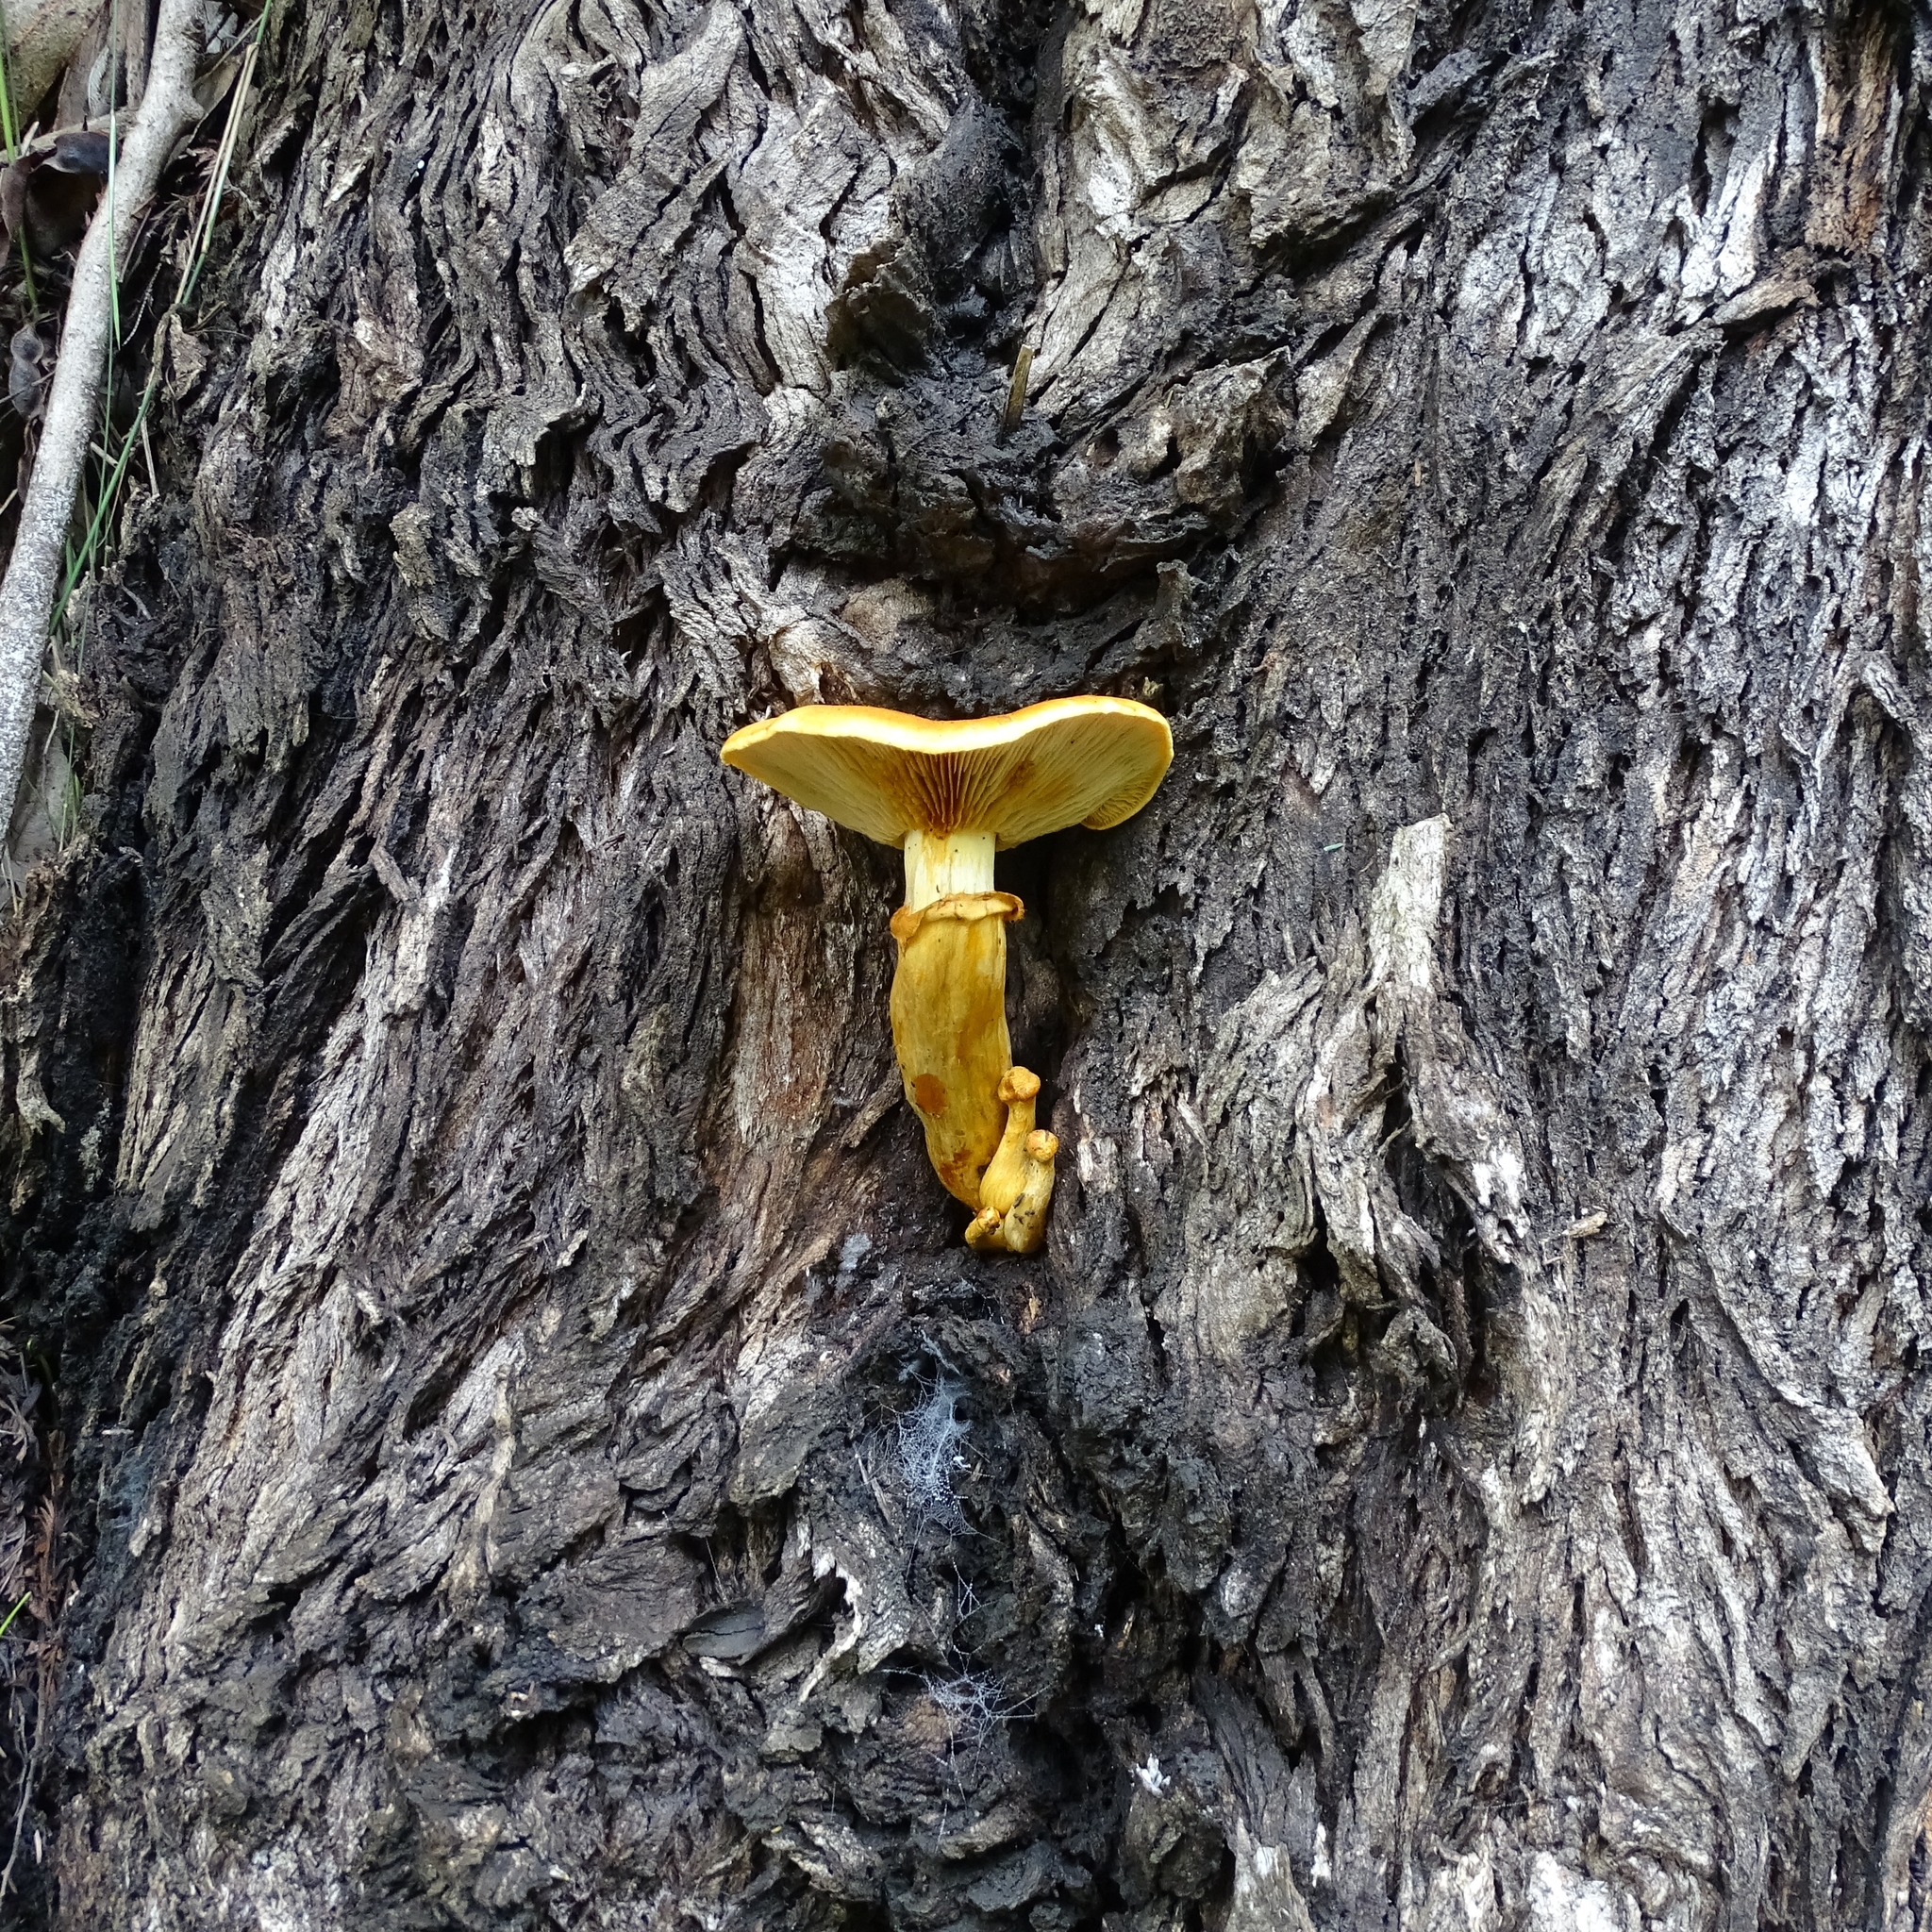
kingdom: Fungi
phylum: Basidiomycota
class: Agaricomycetes
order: Agaricales
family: Hymenogastraceae
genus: Gymnopilus
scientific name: Gymnopilus junonius
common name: Spectacular rustgill
